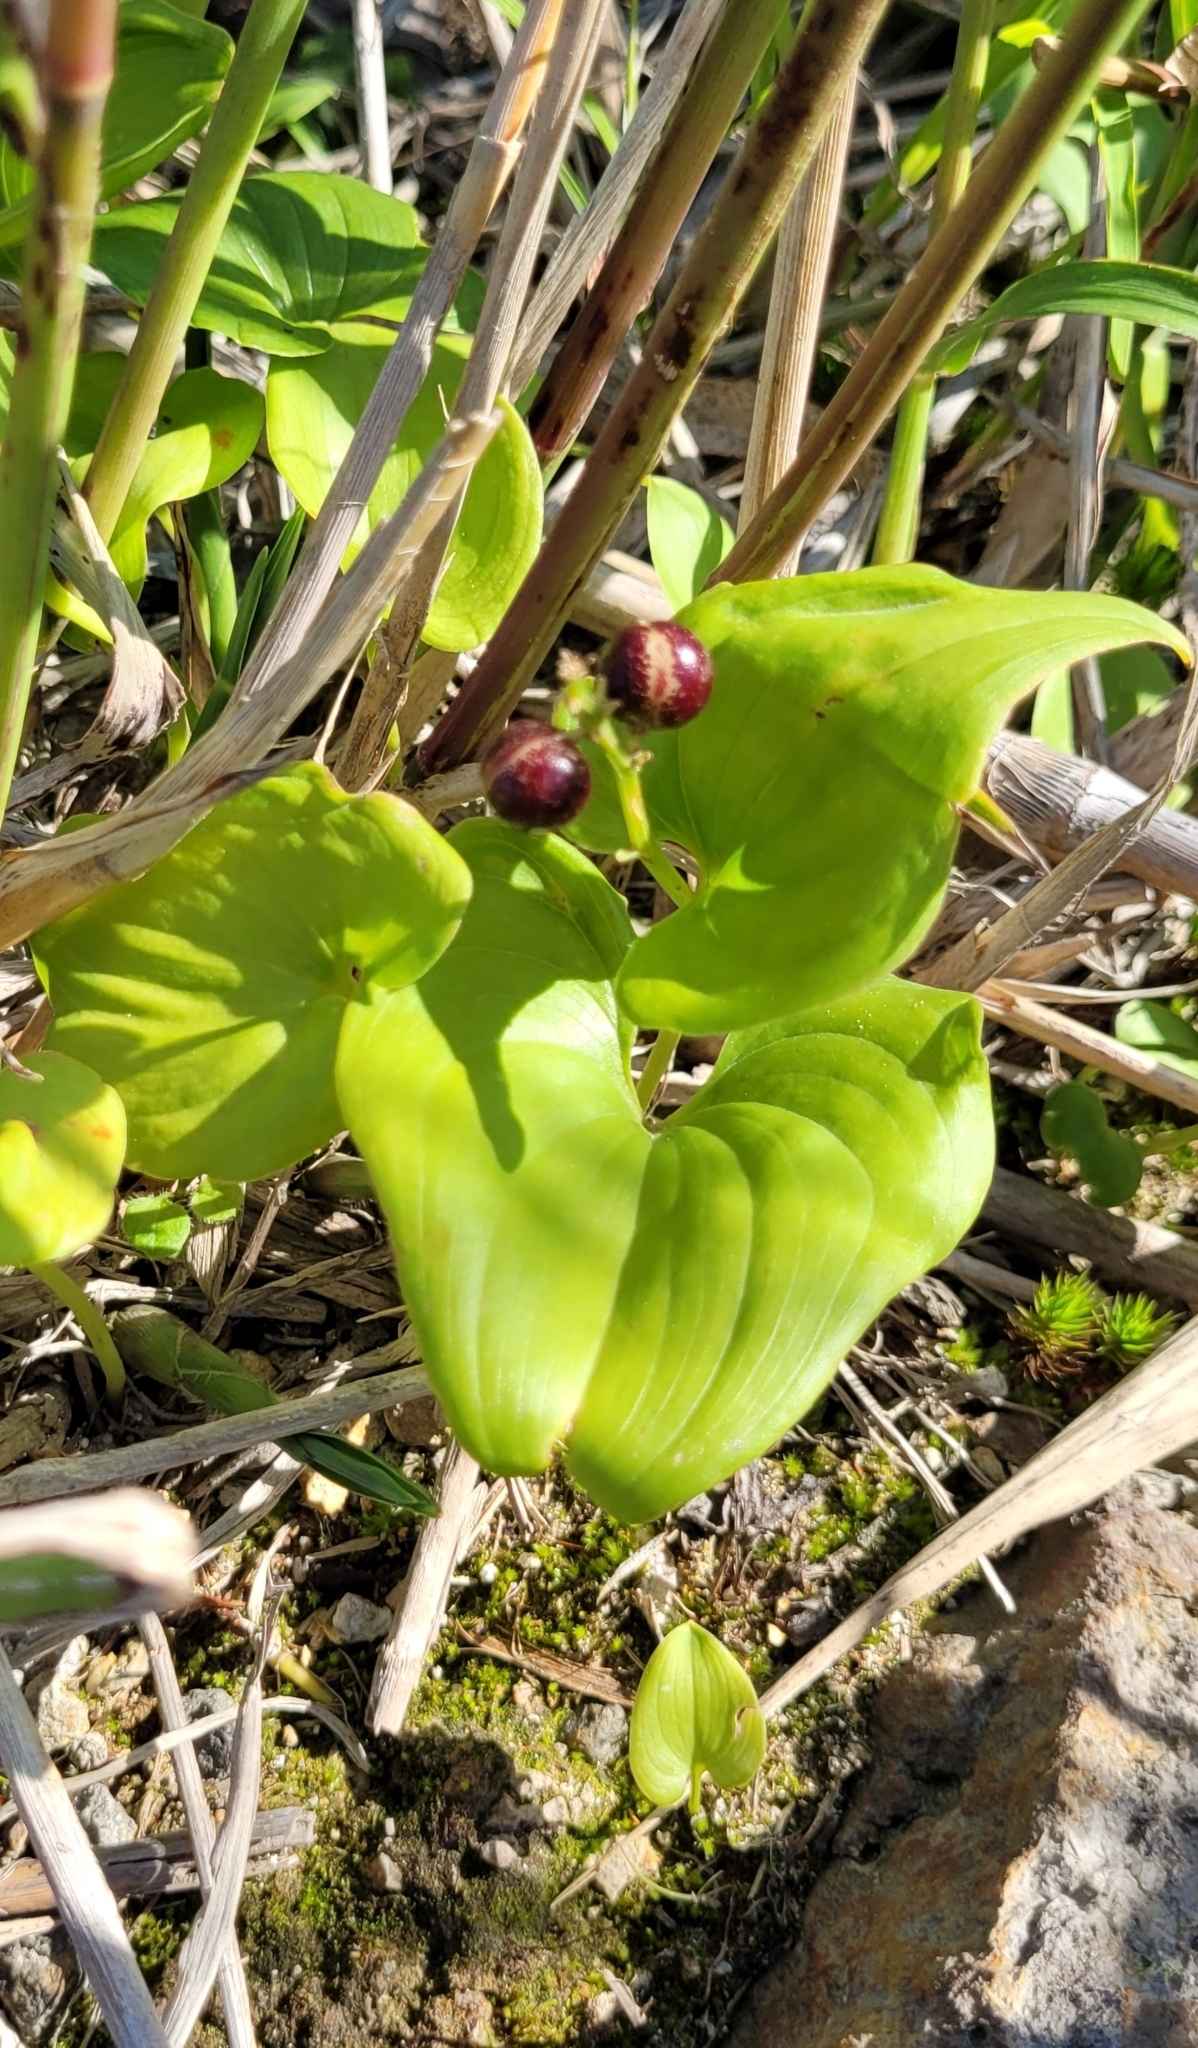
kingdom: Plantae
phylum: Tracheophyta
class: Liliopsida
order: Asparagales
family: Asparagaceae
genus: Maianthemum
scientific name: Maianthemum dilatatum
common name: False lily-of-the-valley
